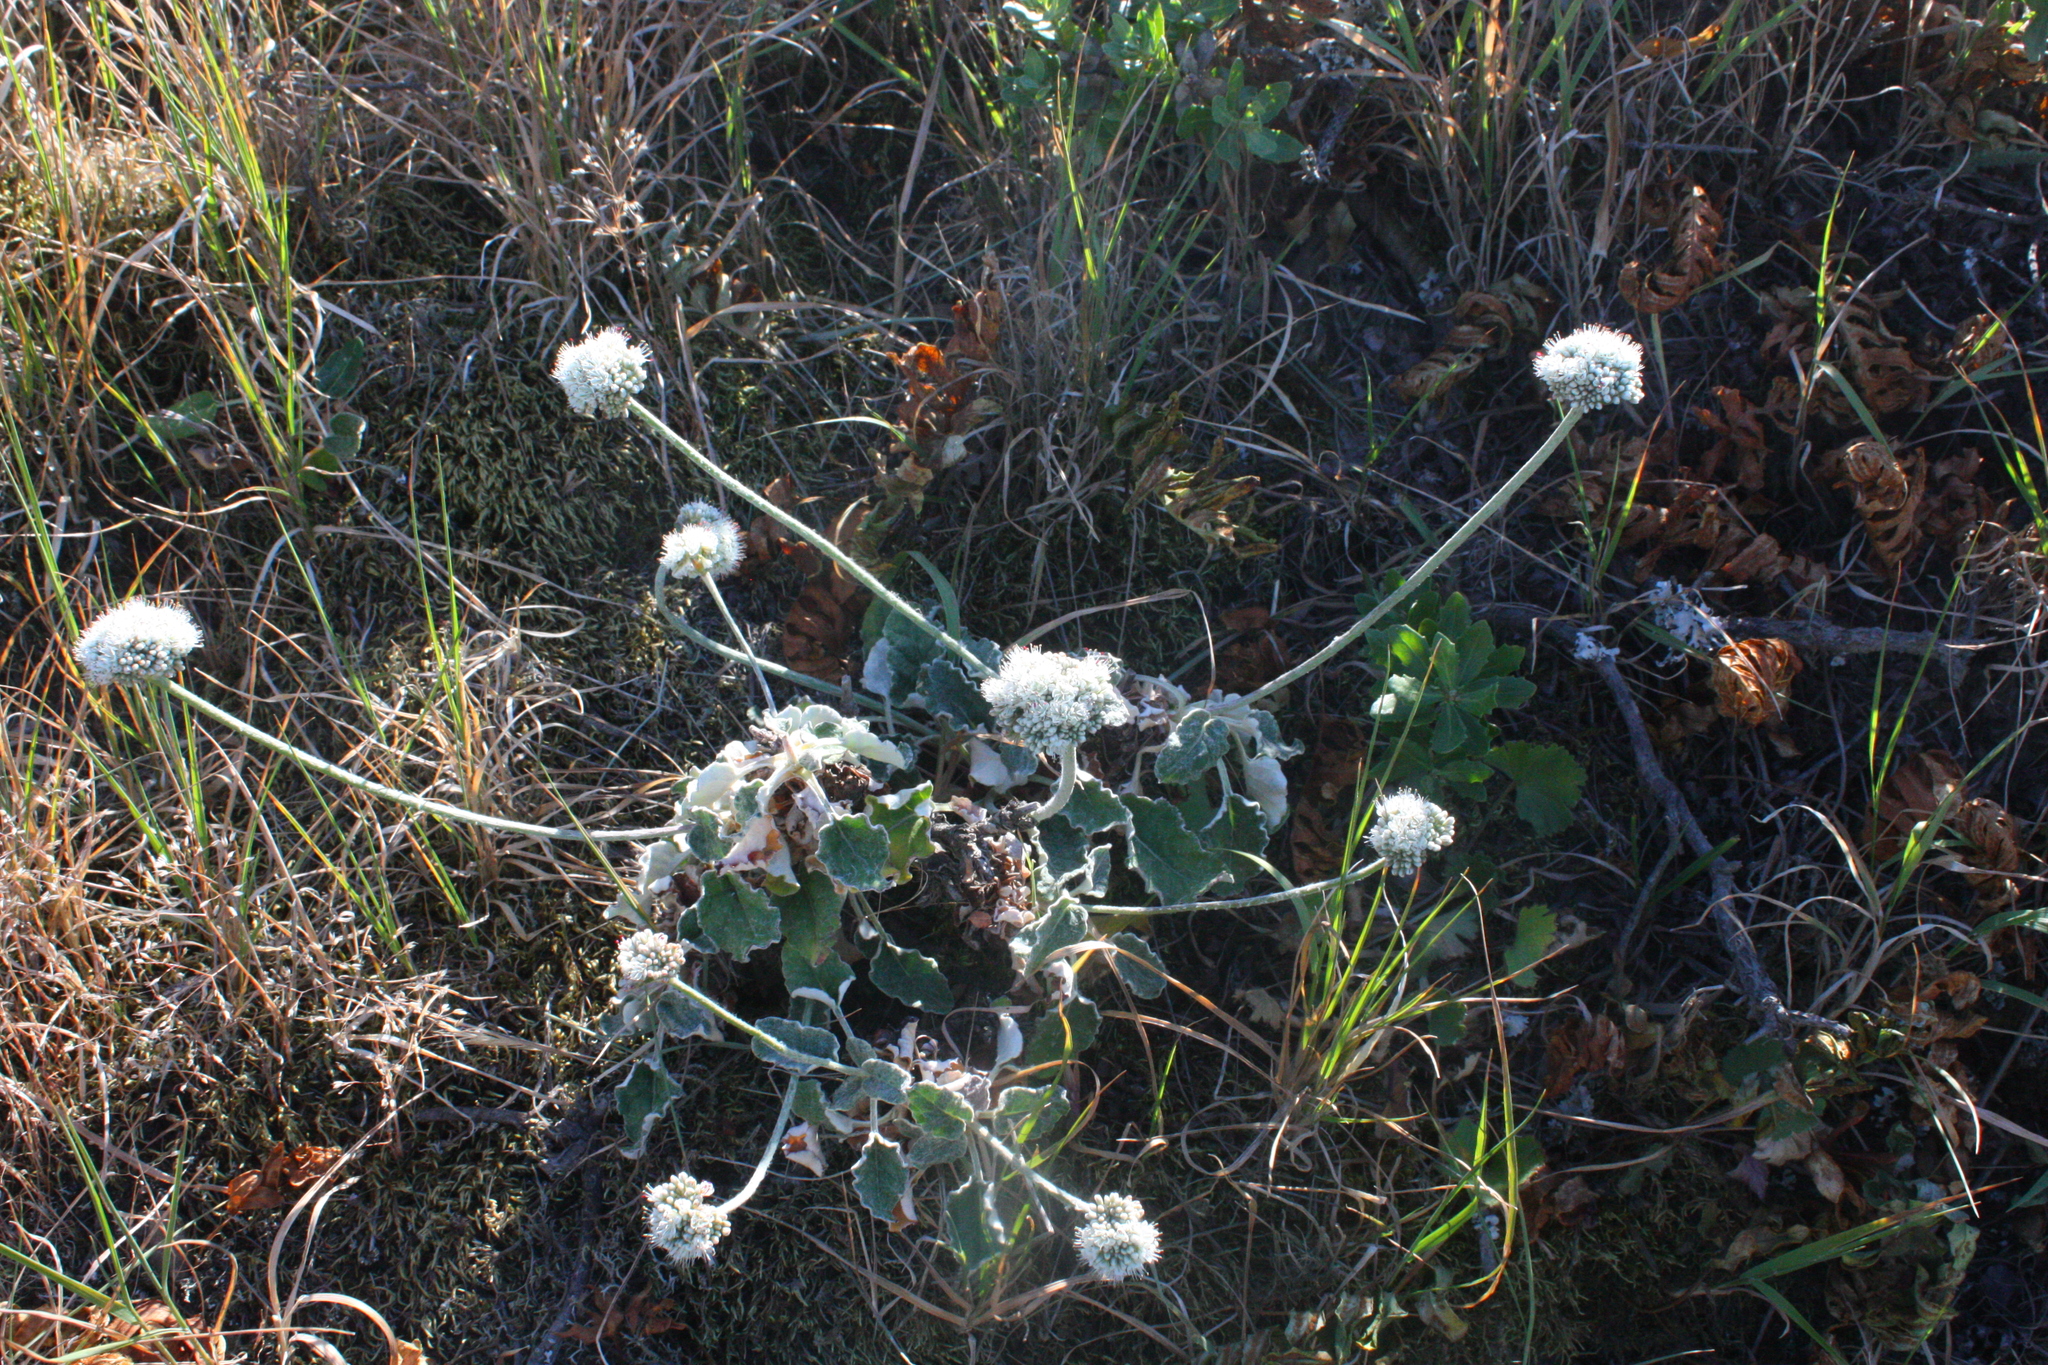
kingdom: Plantae
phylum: Tracheophyta
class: Magnoliopsida
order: Caryophyllales
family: Polygonaceae
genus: Eriogonum
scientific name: Eriogonum latifolium
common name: Seaside wild buckwheat
